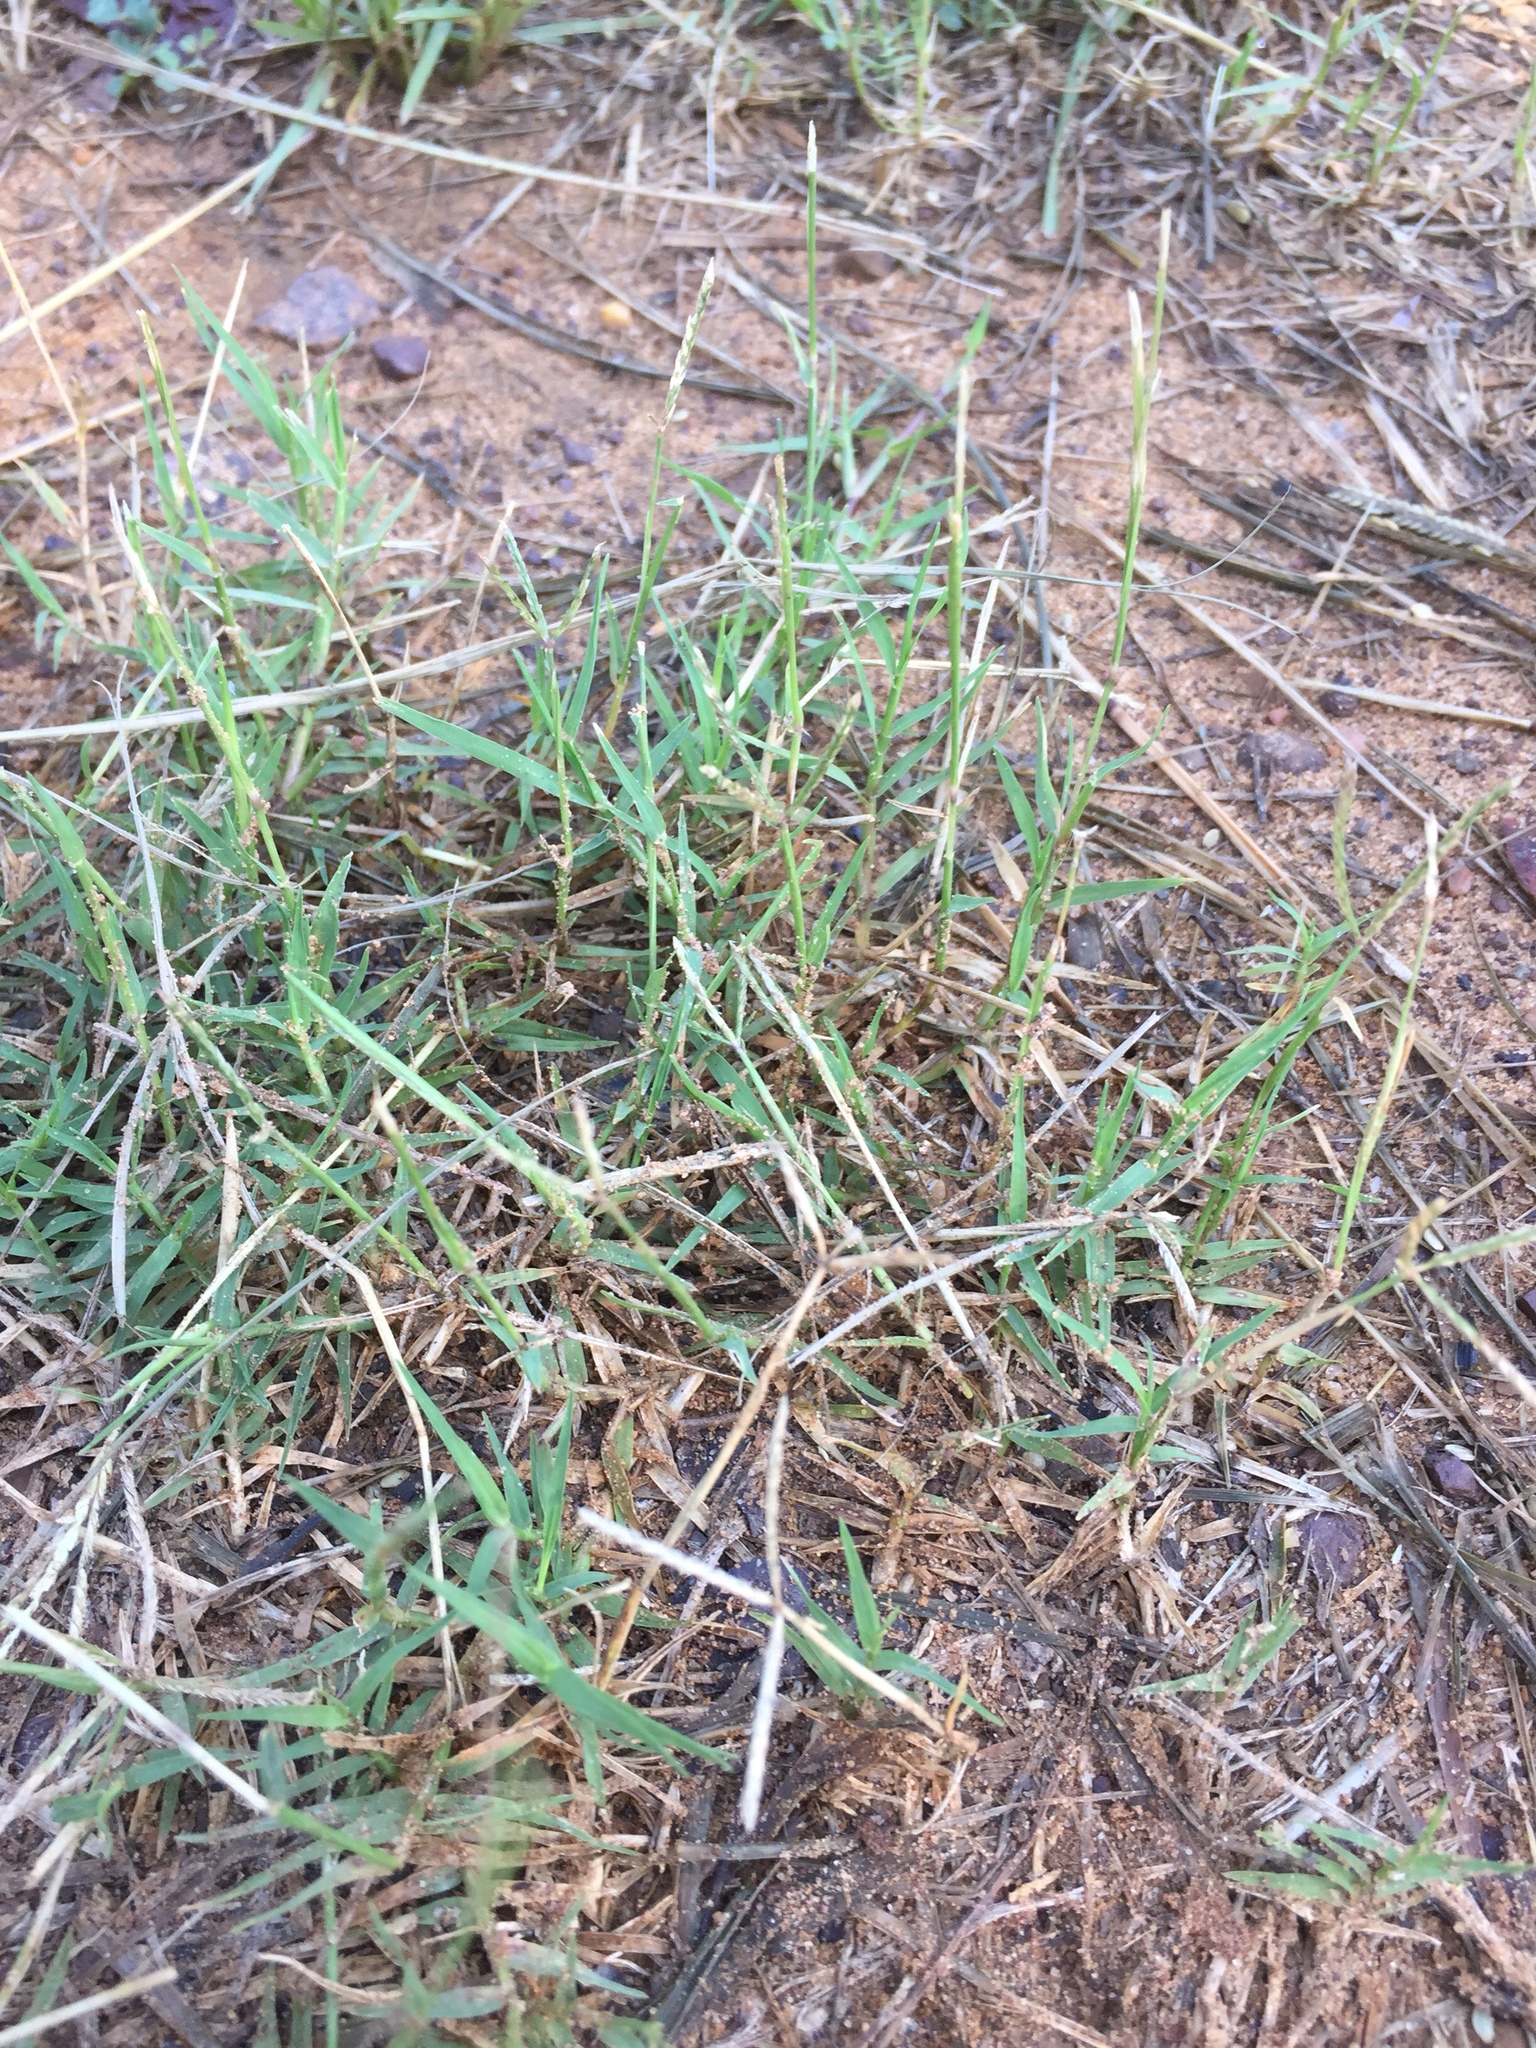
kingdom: Plantae
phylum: Tracheophyta
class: Liliopsida
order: Poales
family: Poaceae
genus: Cynodon
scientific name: Cynodon dactylon
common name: Bermuda grass
